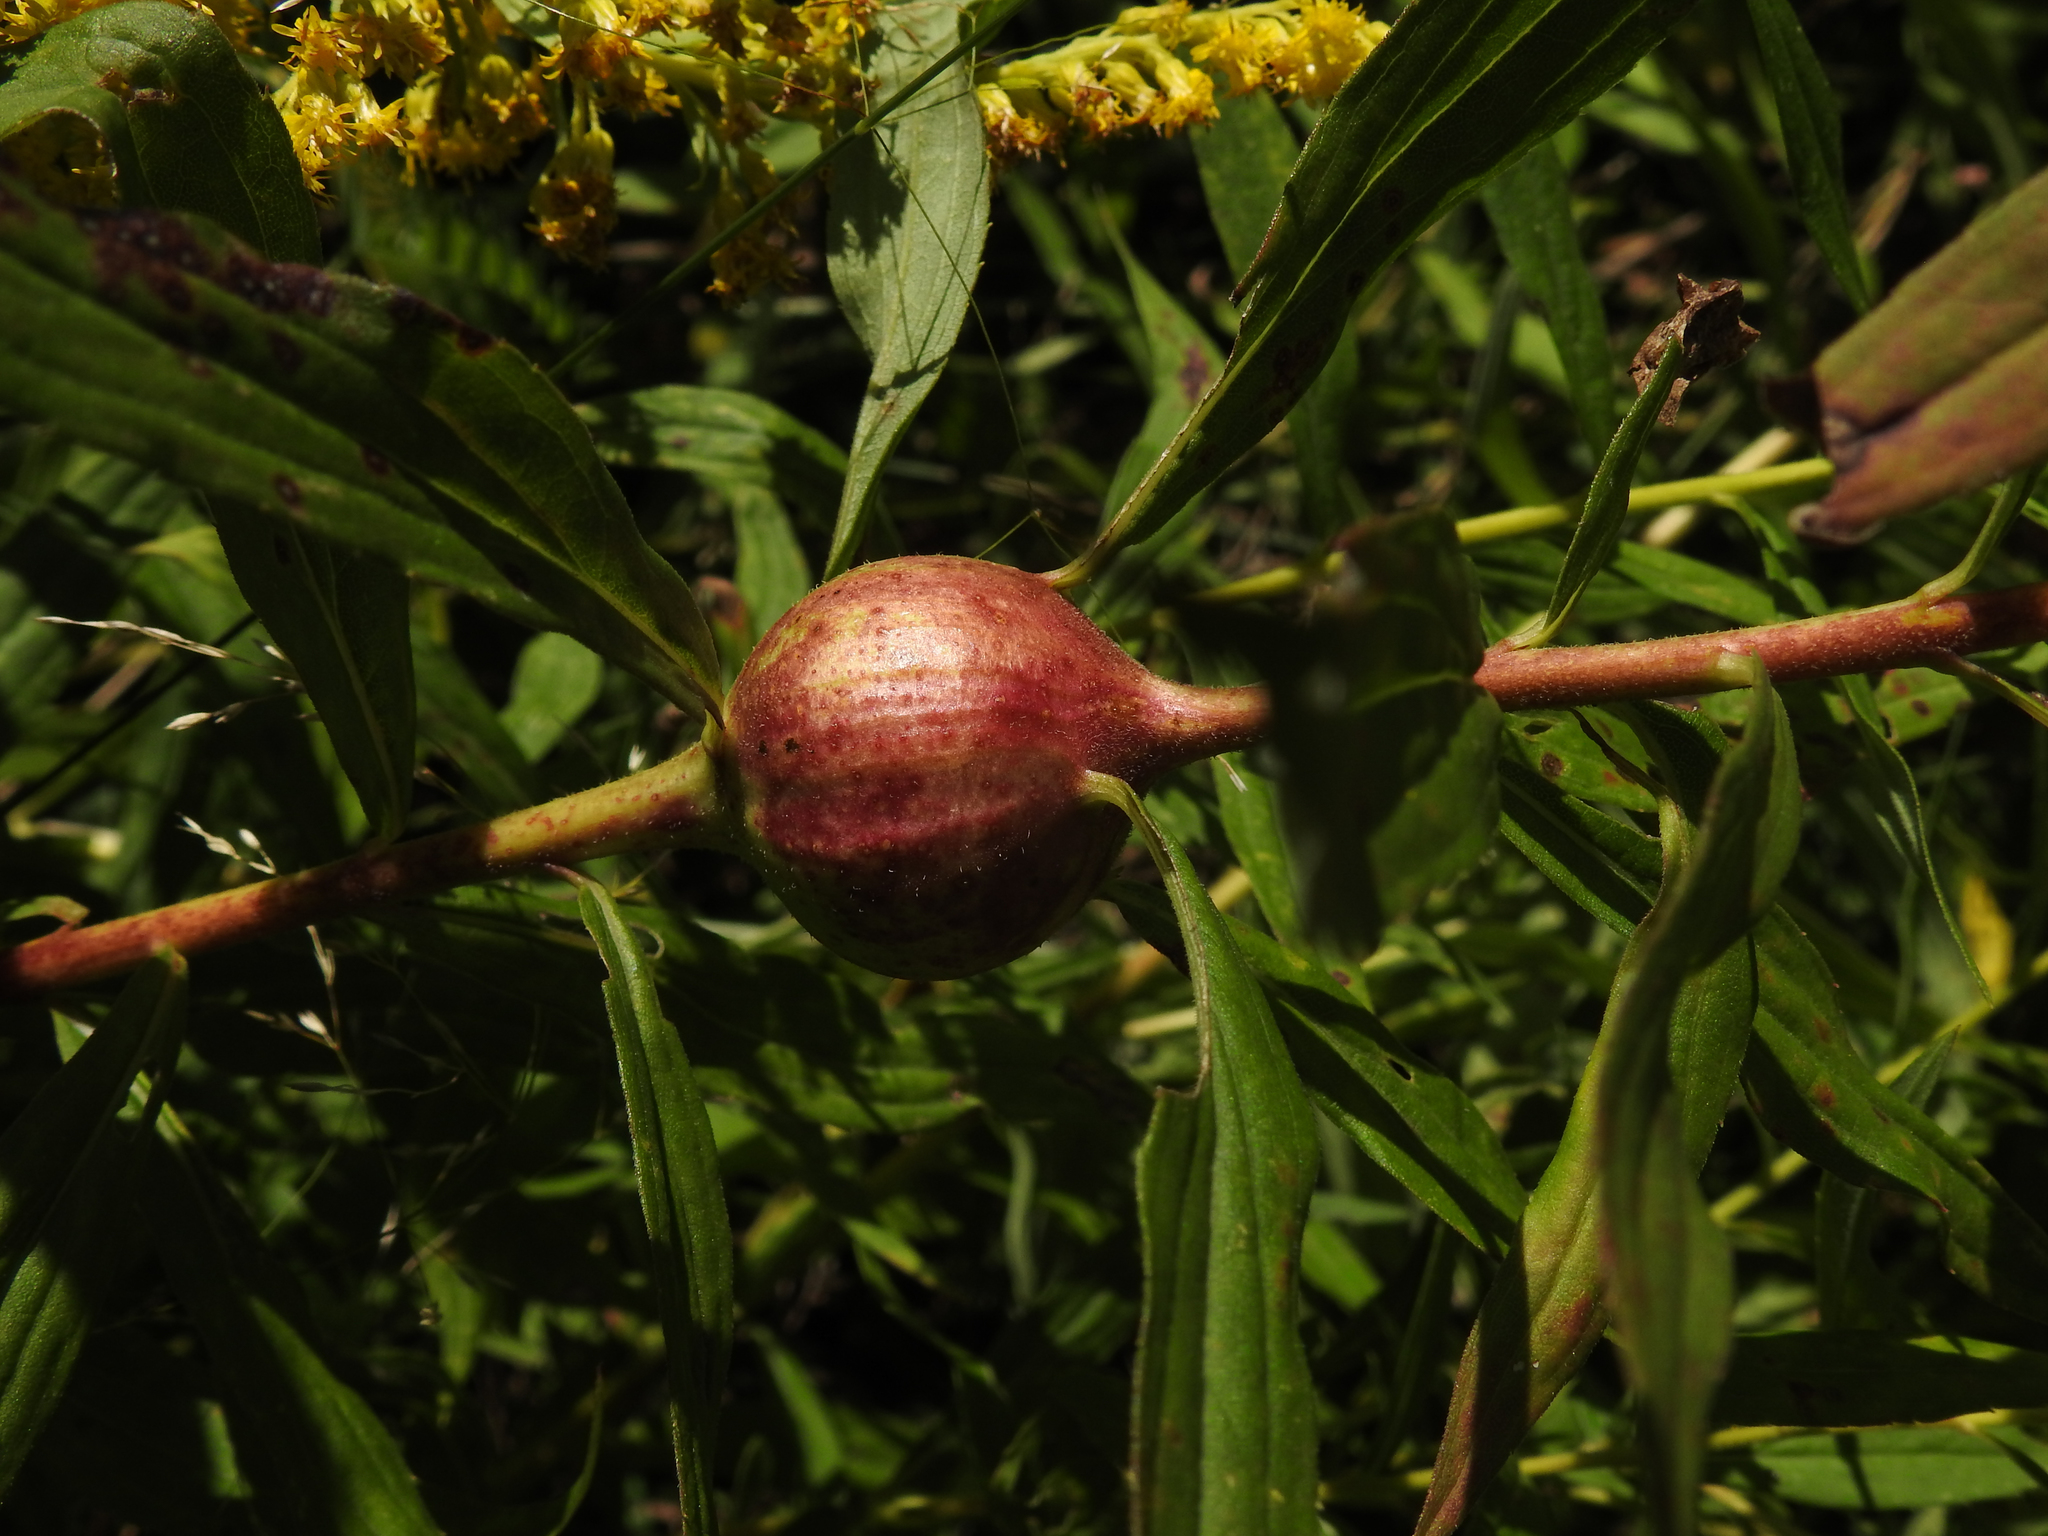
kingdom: Animalia
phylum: Arthropoda
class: Insecta
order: Diptera
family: Tephritidae
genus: Eurosta
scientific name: Eurosta solidaginis
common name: Goldenrod gall fly
